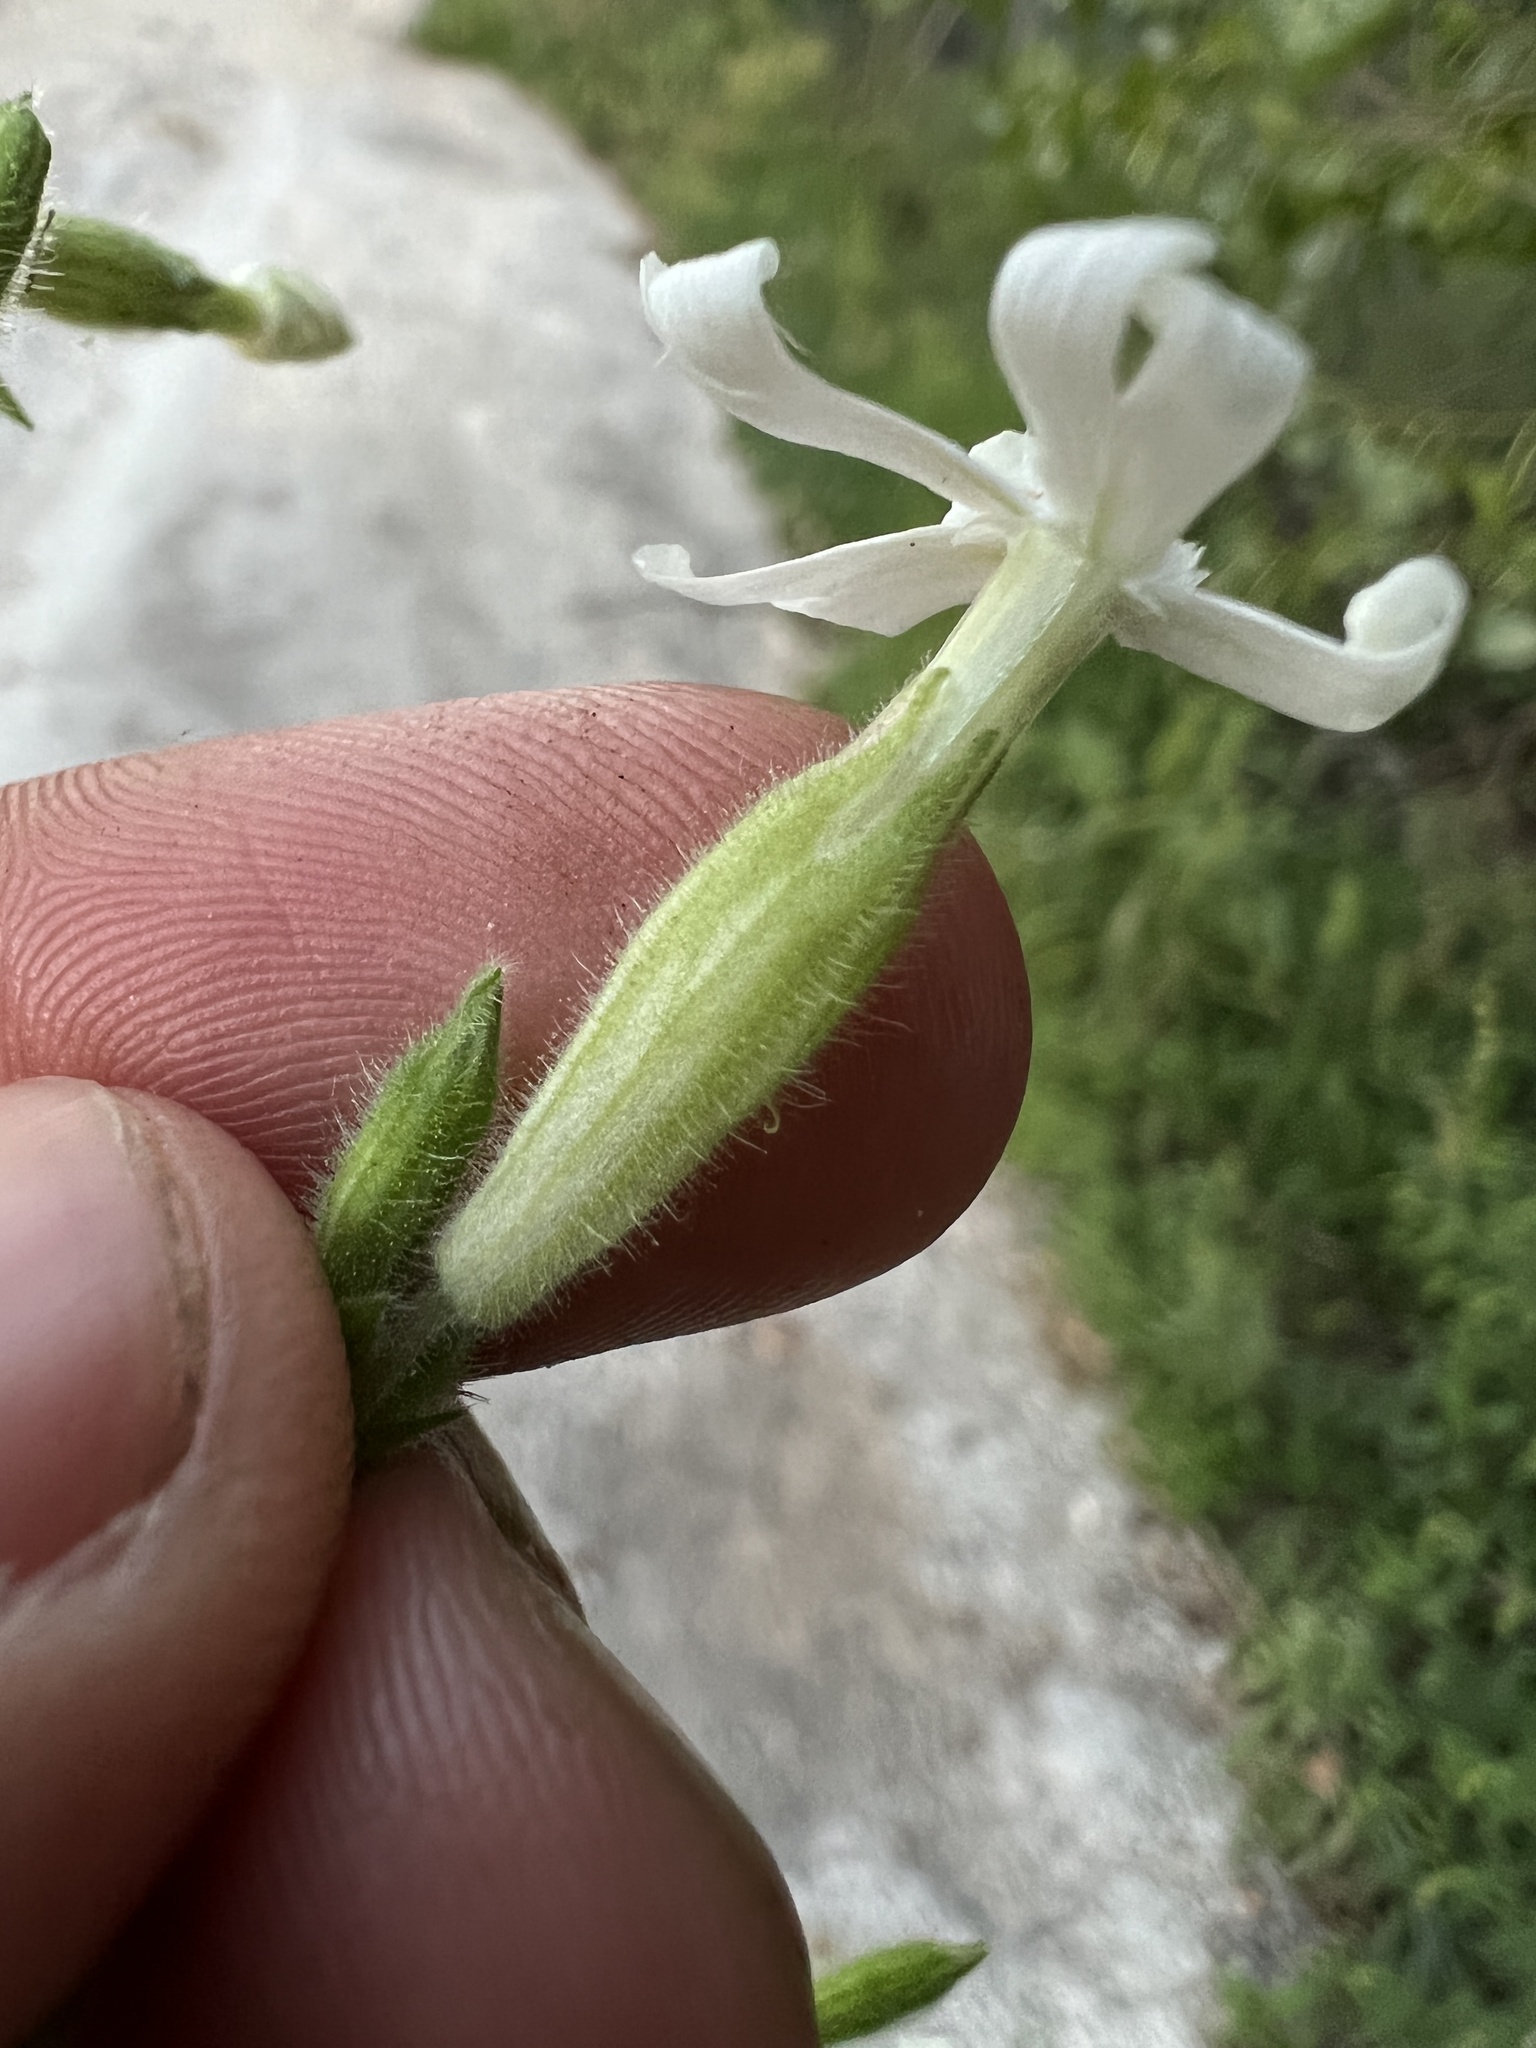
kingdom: Plantae
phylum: Tracheophyta
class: Magnoliopsida
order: Caryophyllales
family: Caryophyllaceae
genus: Silene
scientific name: Silene latifolia
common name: White campion
